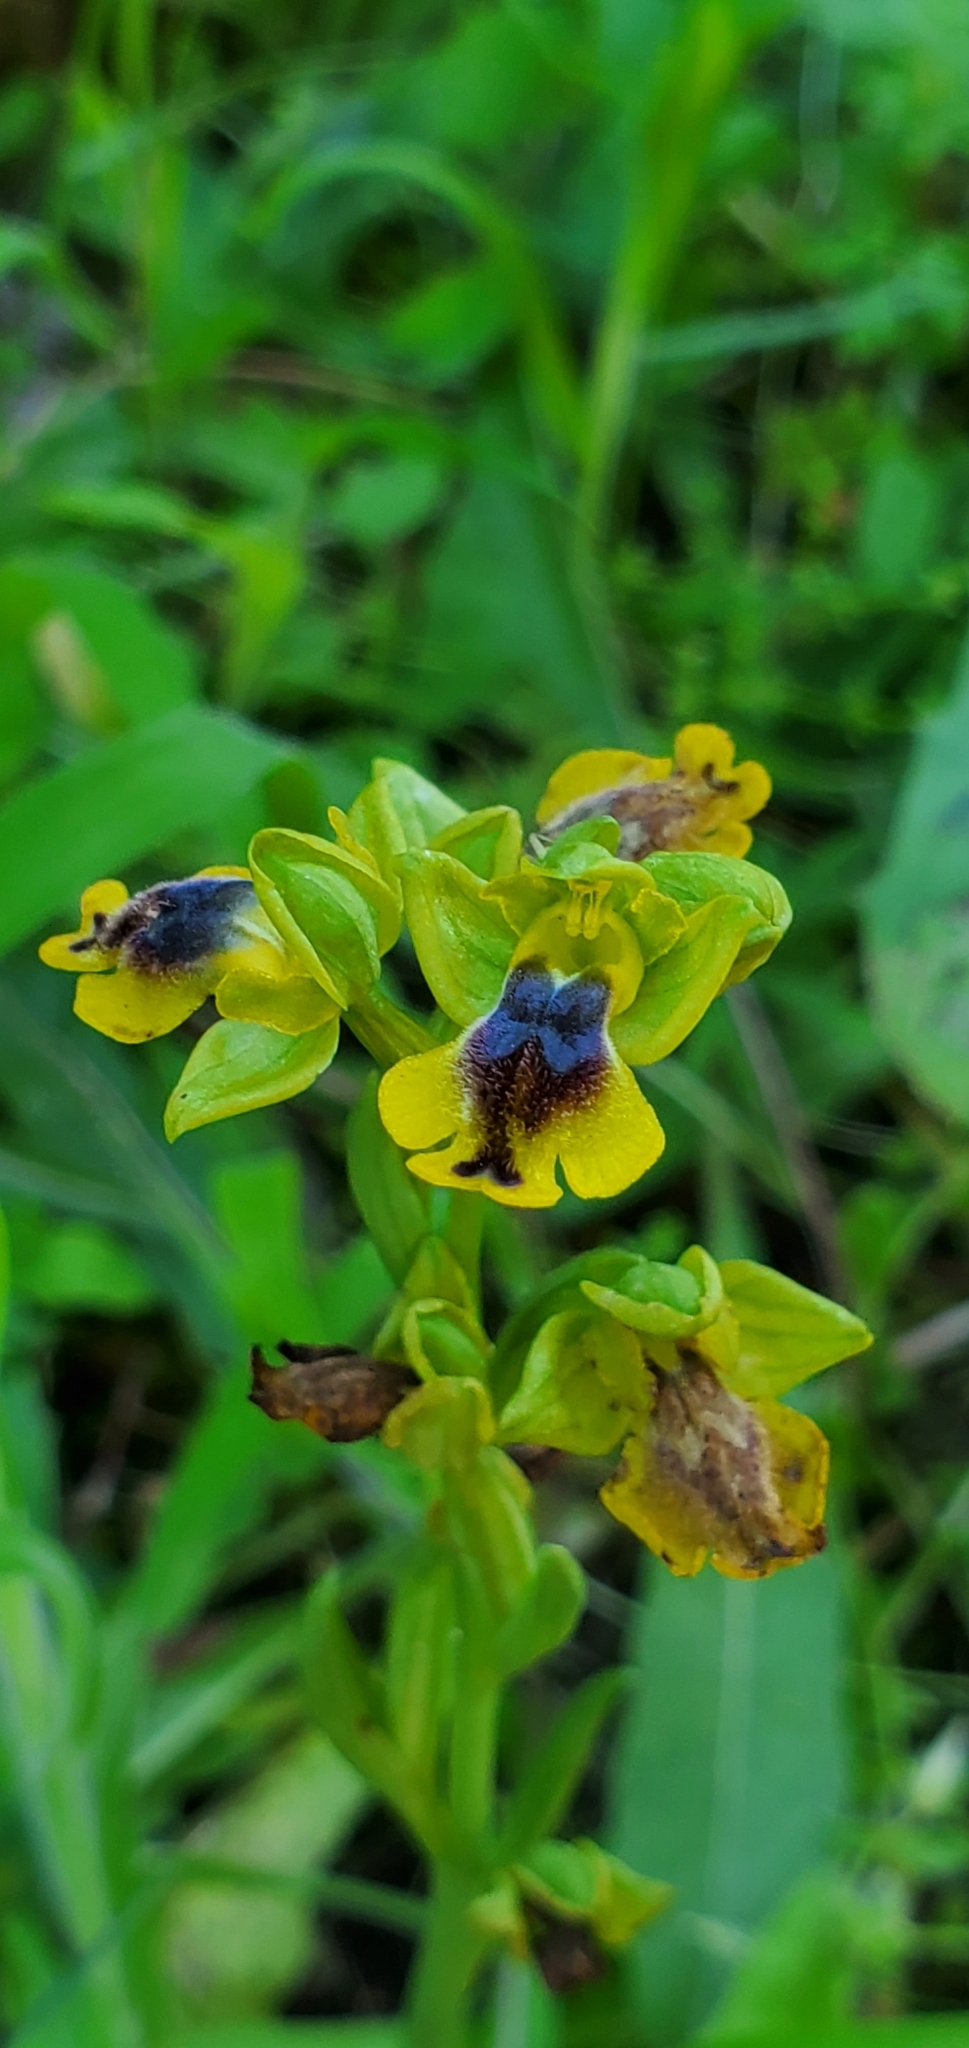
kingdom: Plantae
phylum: Tracheophyta
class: Liliopsida
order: Asparagales
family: Orchidaceae
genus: Ophrys
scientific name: Ophrys lutea
